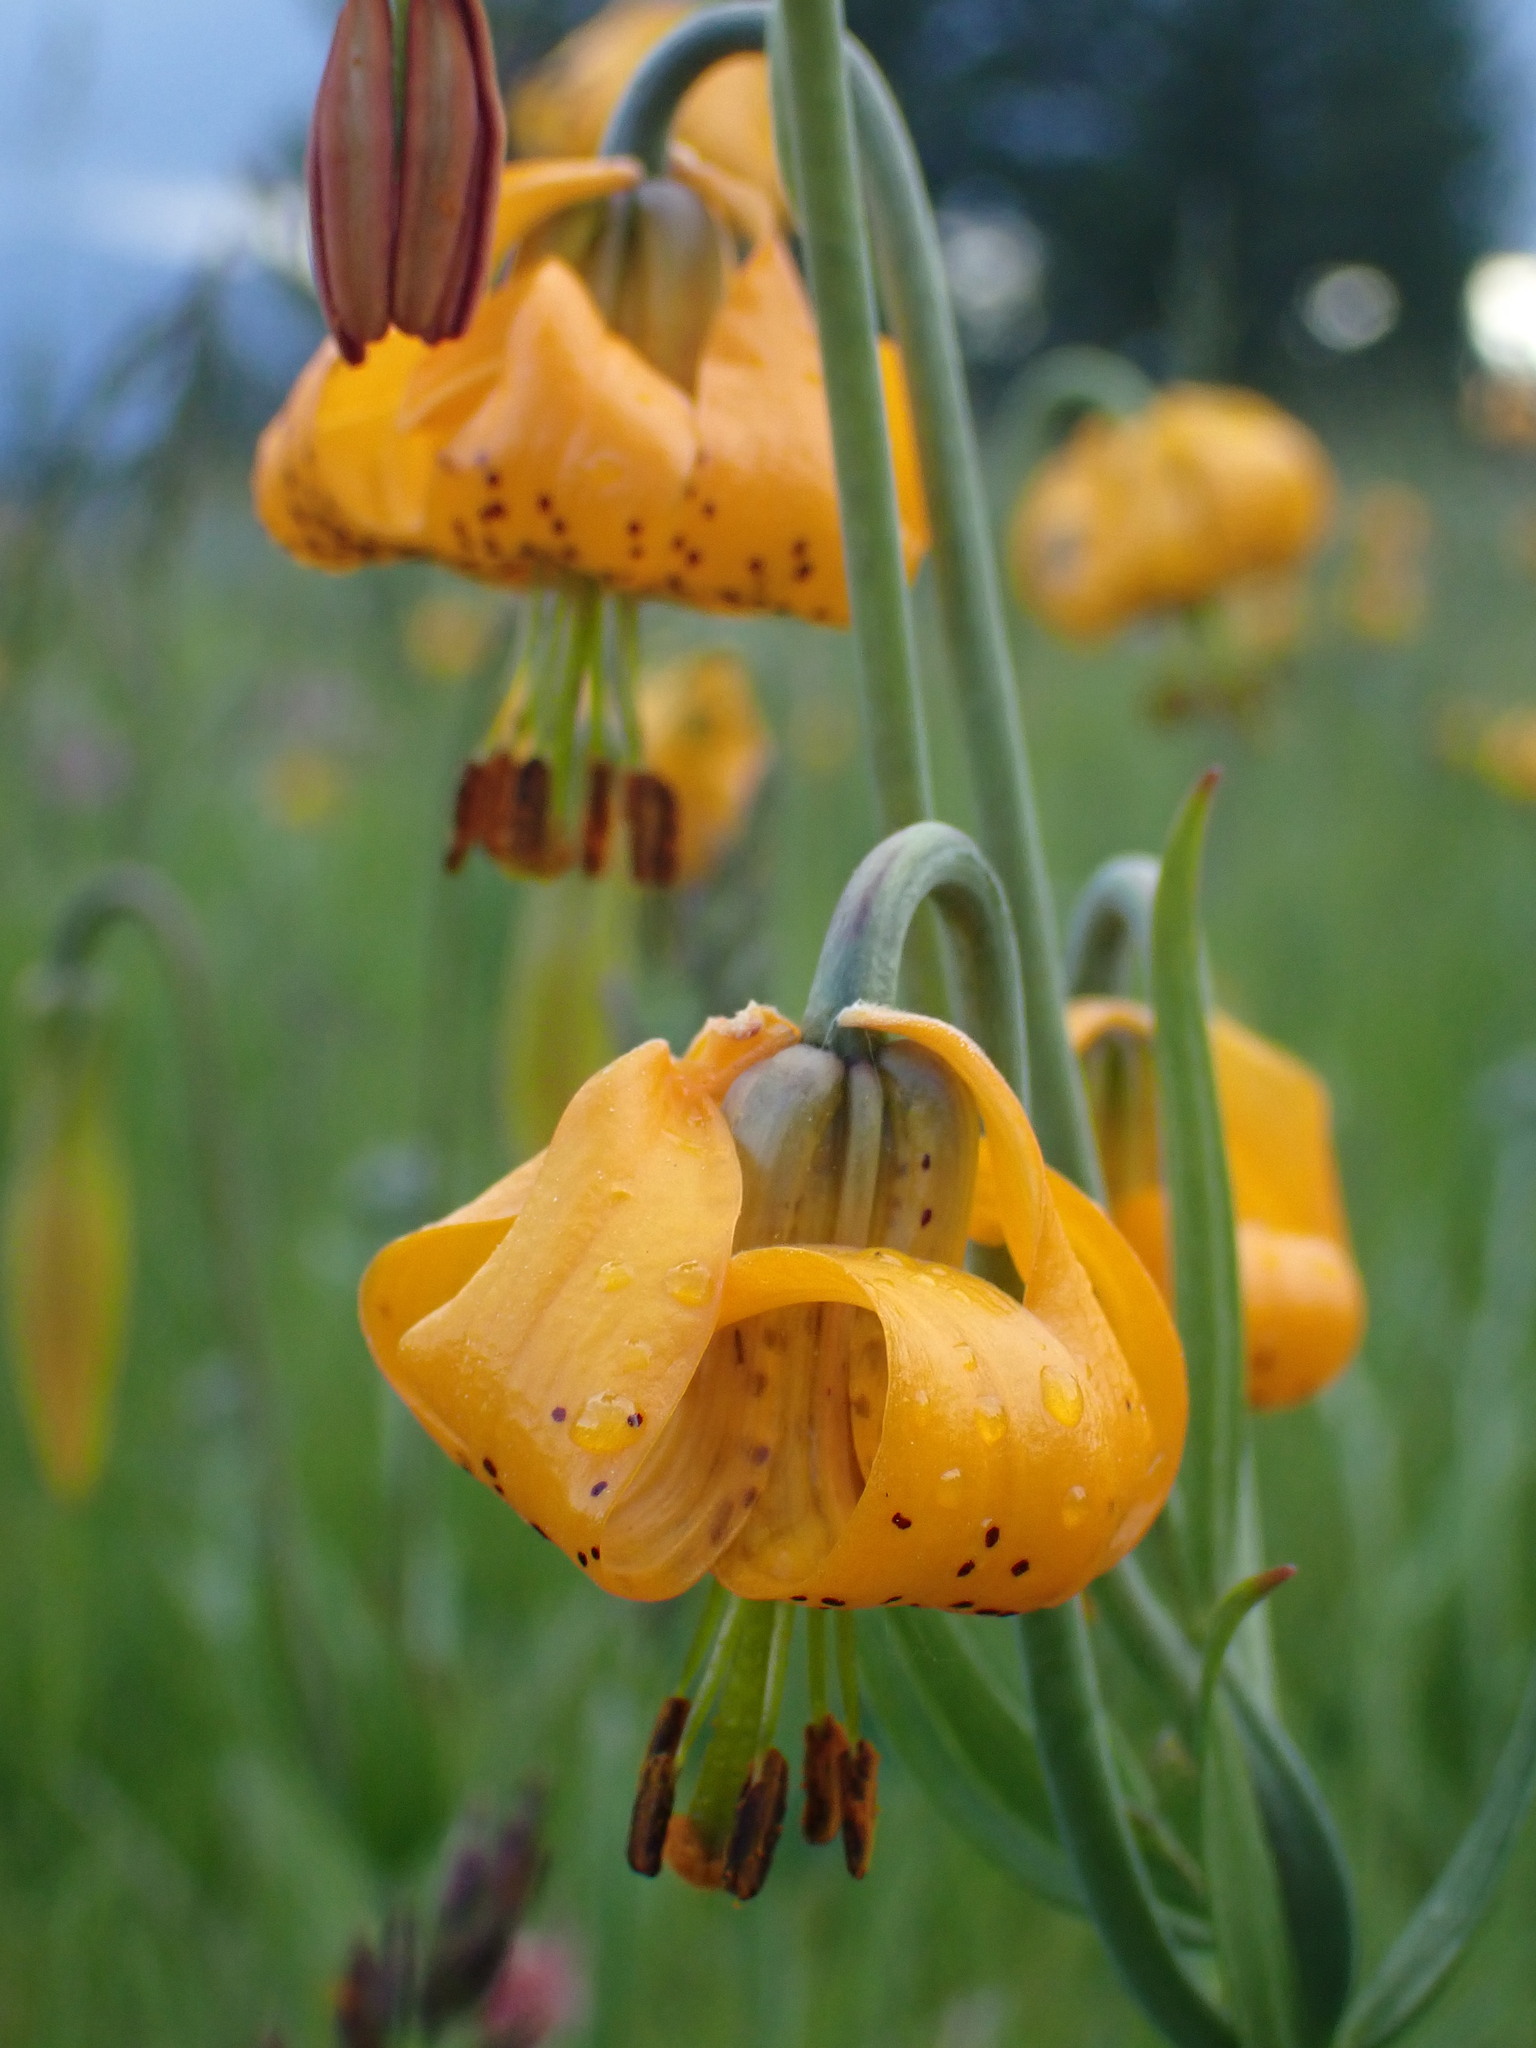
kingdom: Plantae
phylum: Tracheophyta
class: Liliopsida
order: Liliales
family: Liliaceae
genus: Lilium
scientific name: Lilium columbianum
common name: Columbia lily
